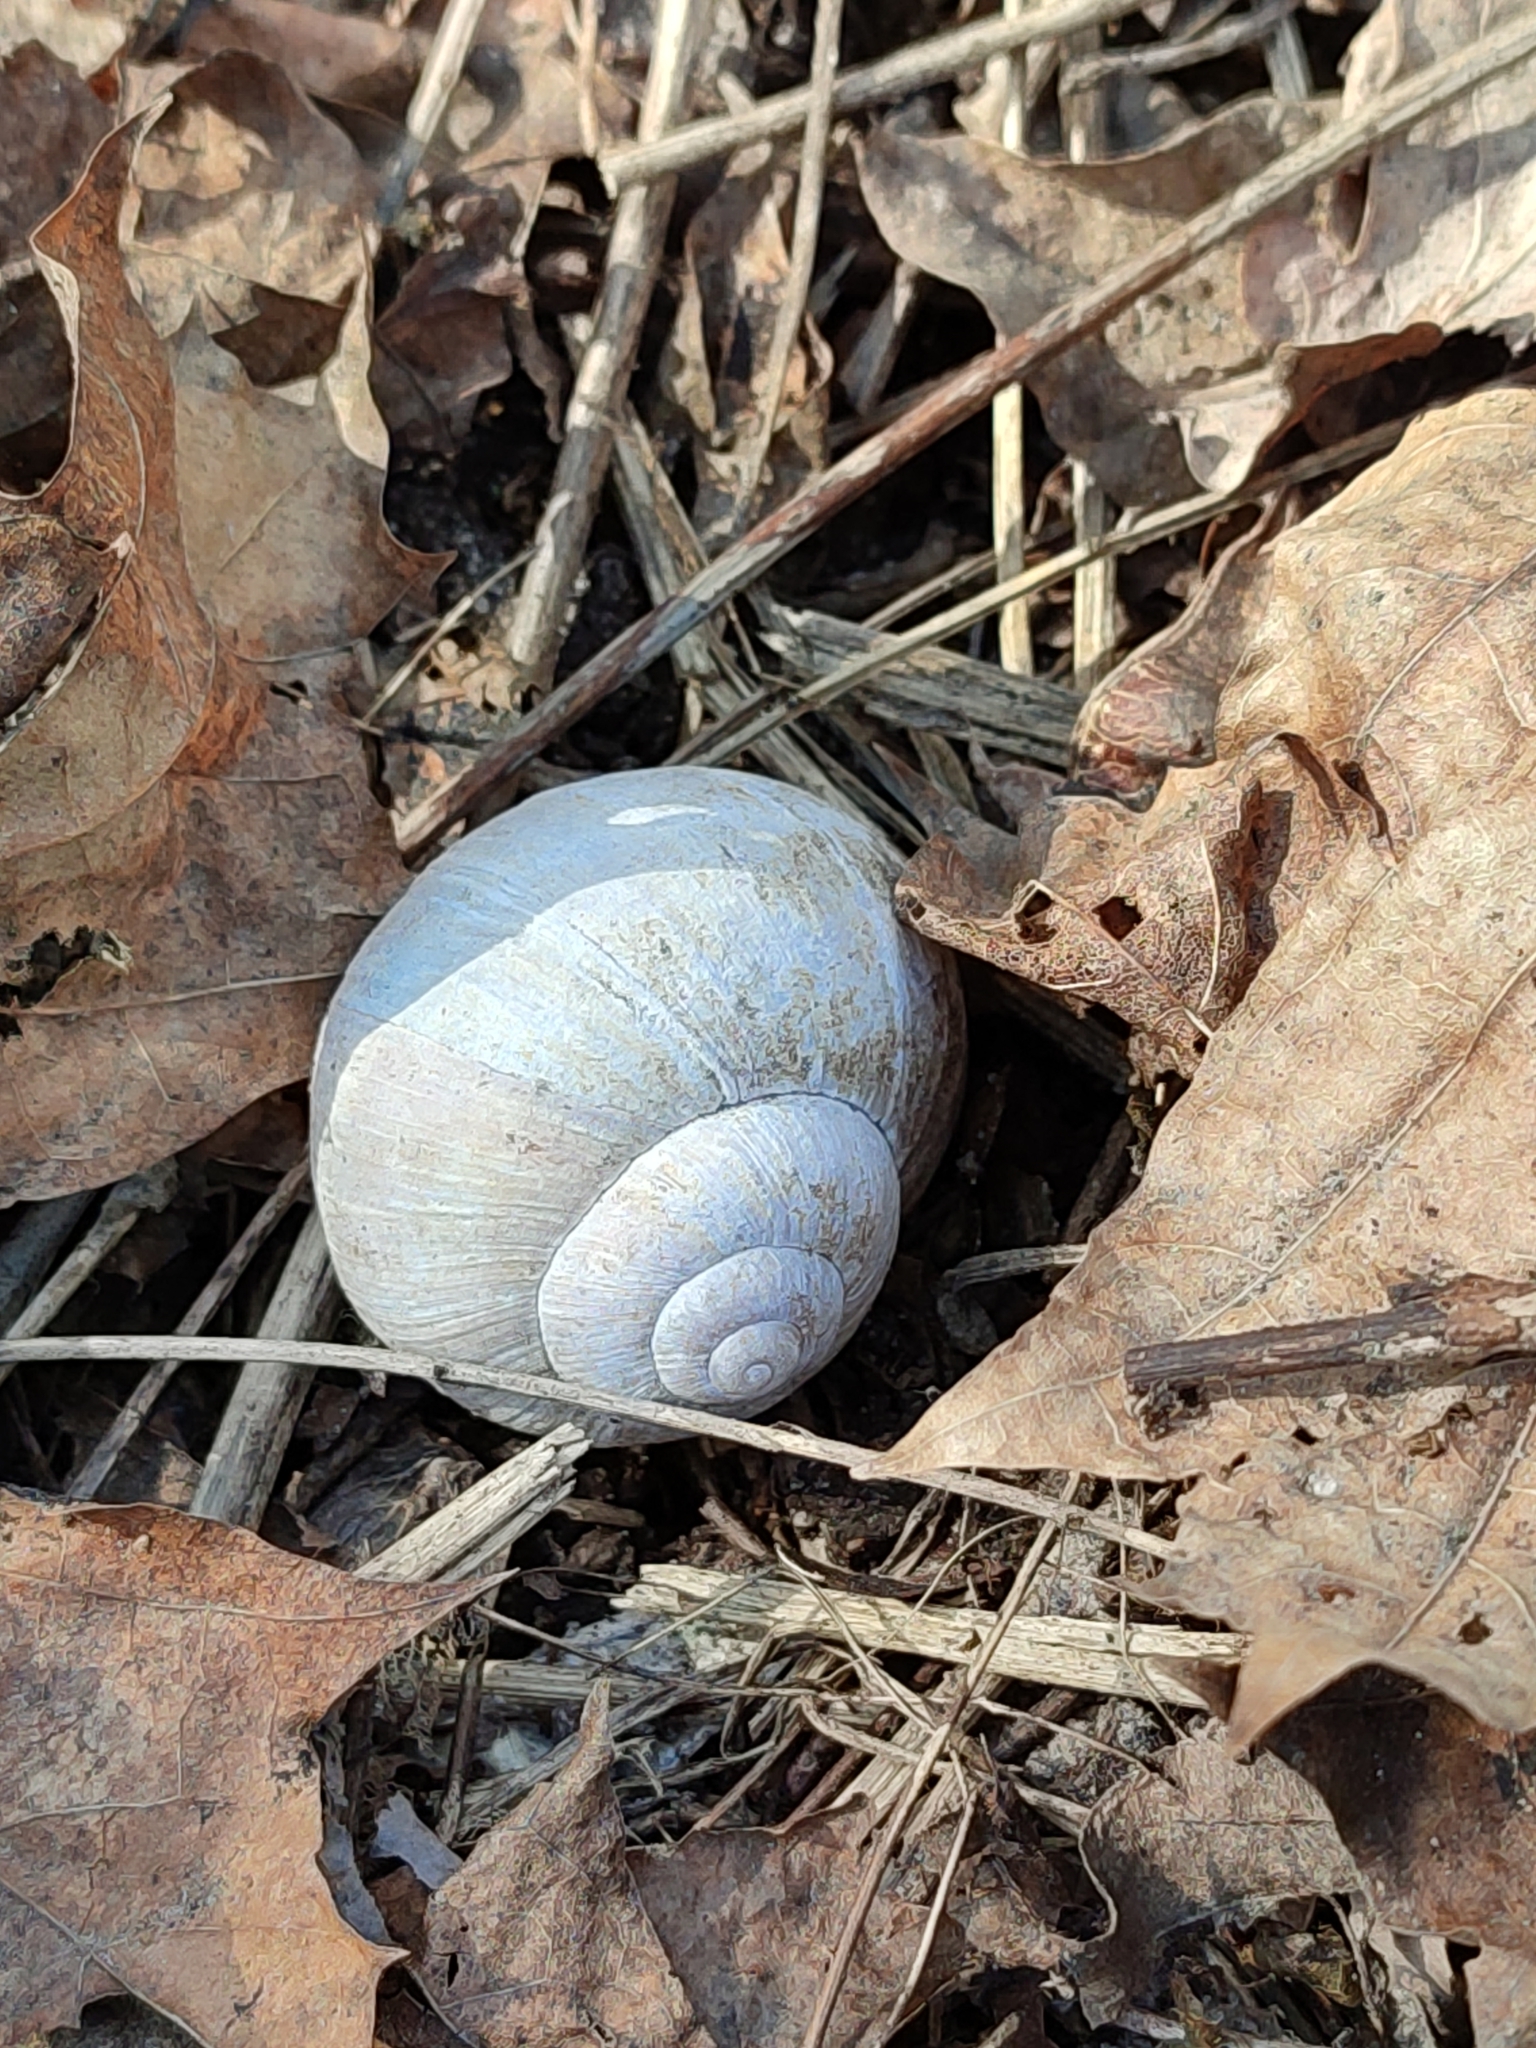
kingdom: Animalia
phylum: Mollusca
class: Gastropoda
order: Stylommatophora
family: Helicidae
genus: Helix
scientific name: Helix pomatia
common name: Roman snail
